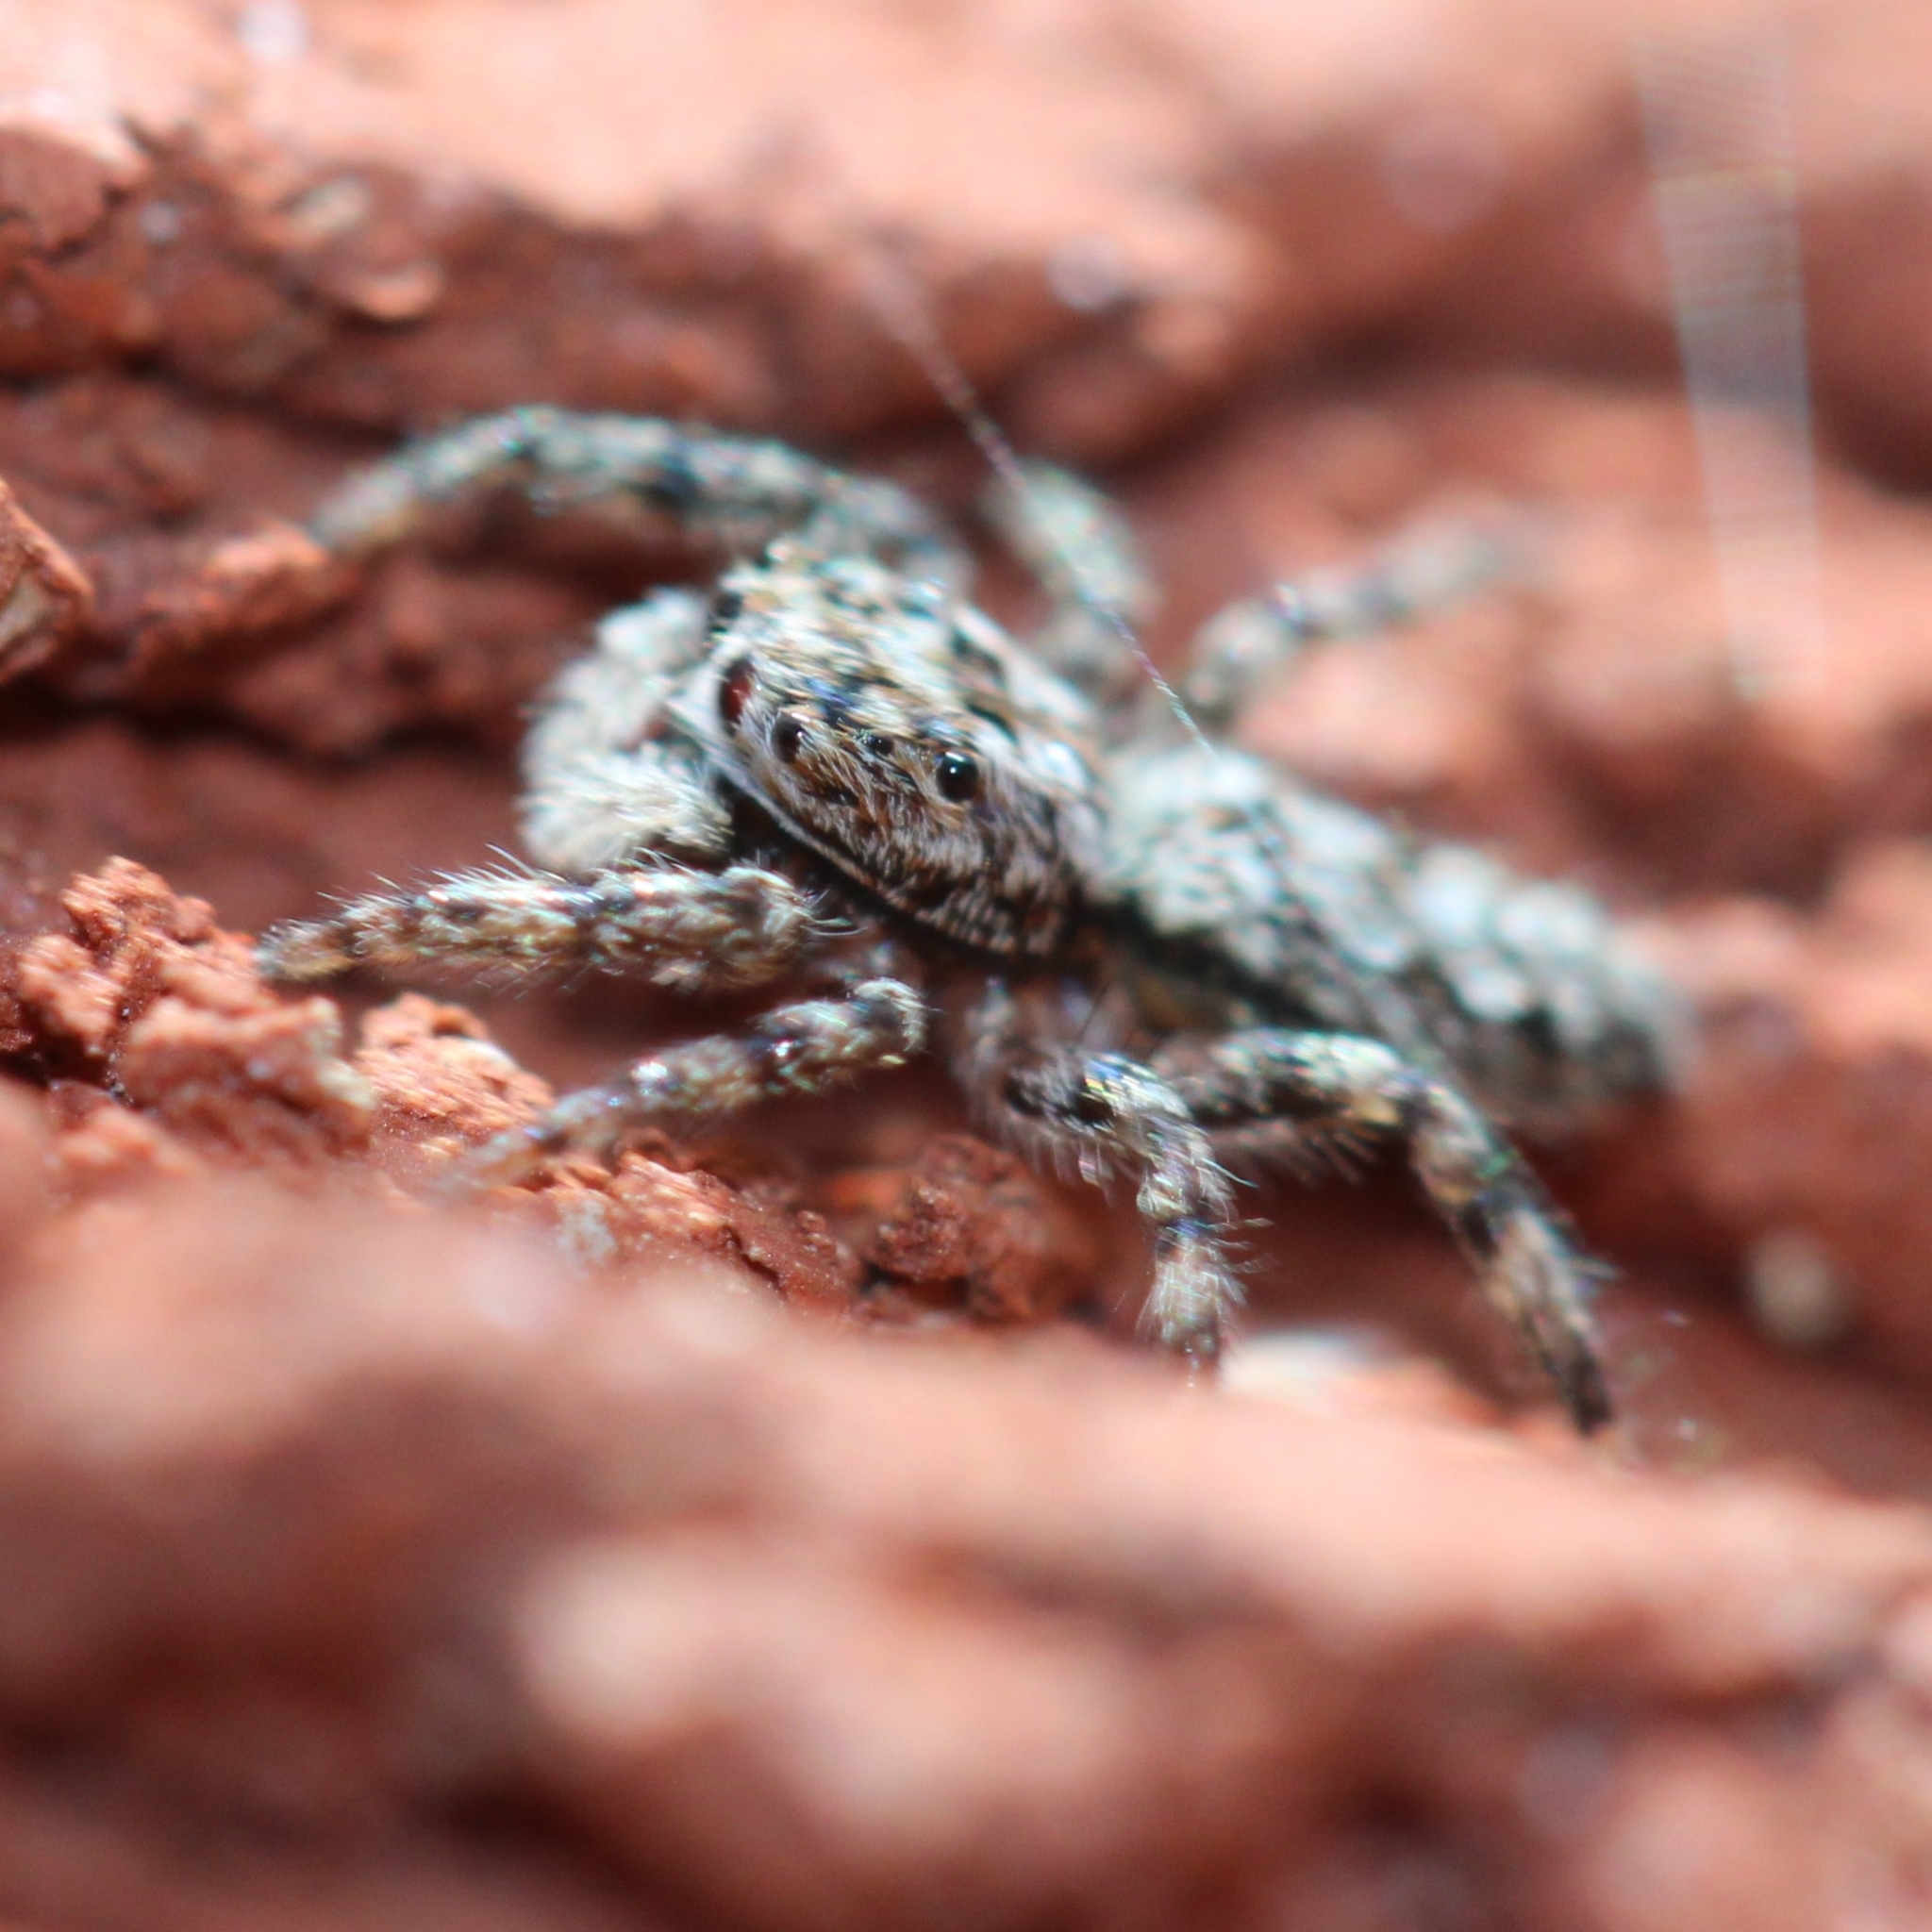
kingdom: Animalia
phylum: Arthropoda
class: Arachnida
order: Araneae
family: Salticidae
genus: Platycryptus
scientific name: Platycryptus undatus
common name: Tan jumping spider
